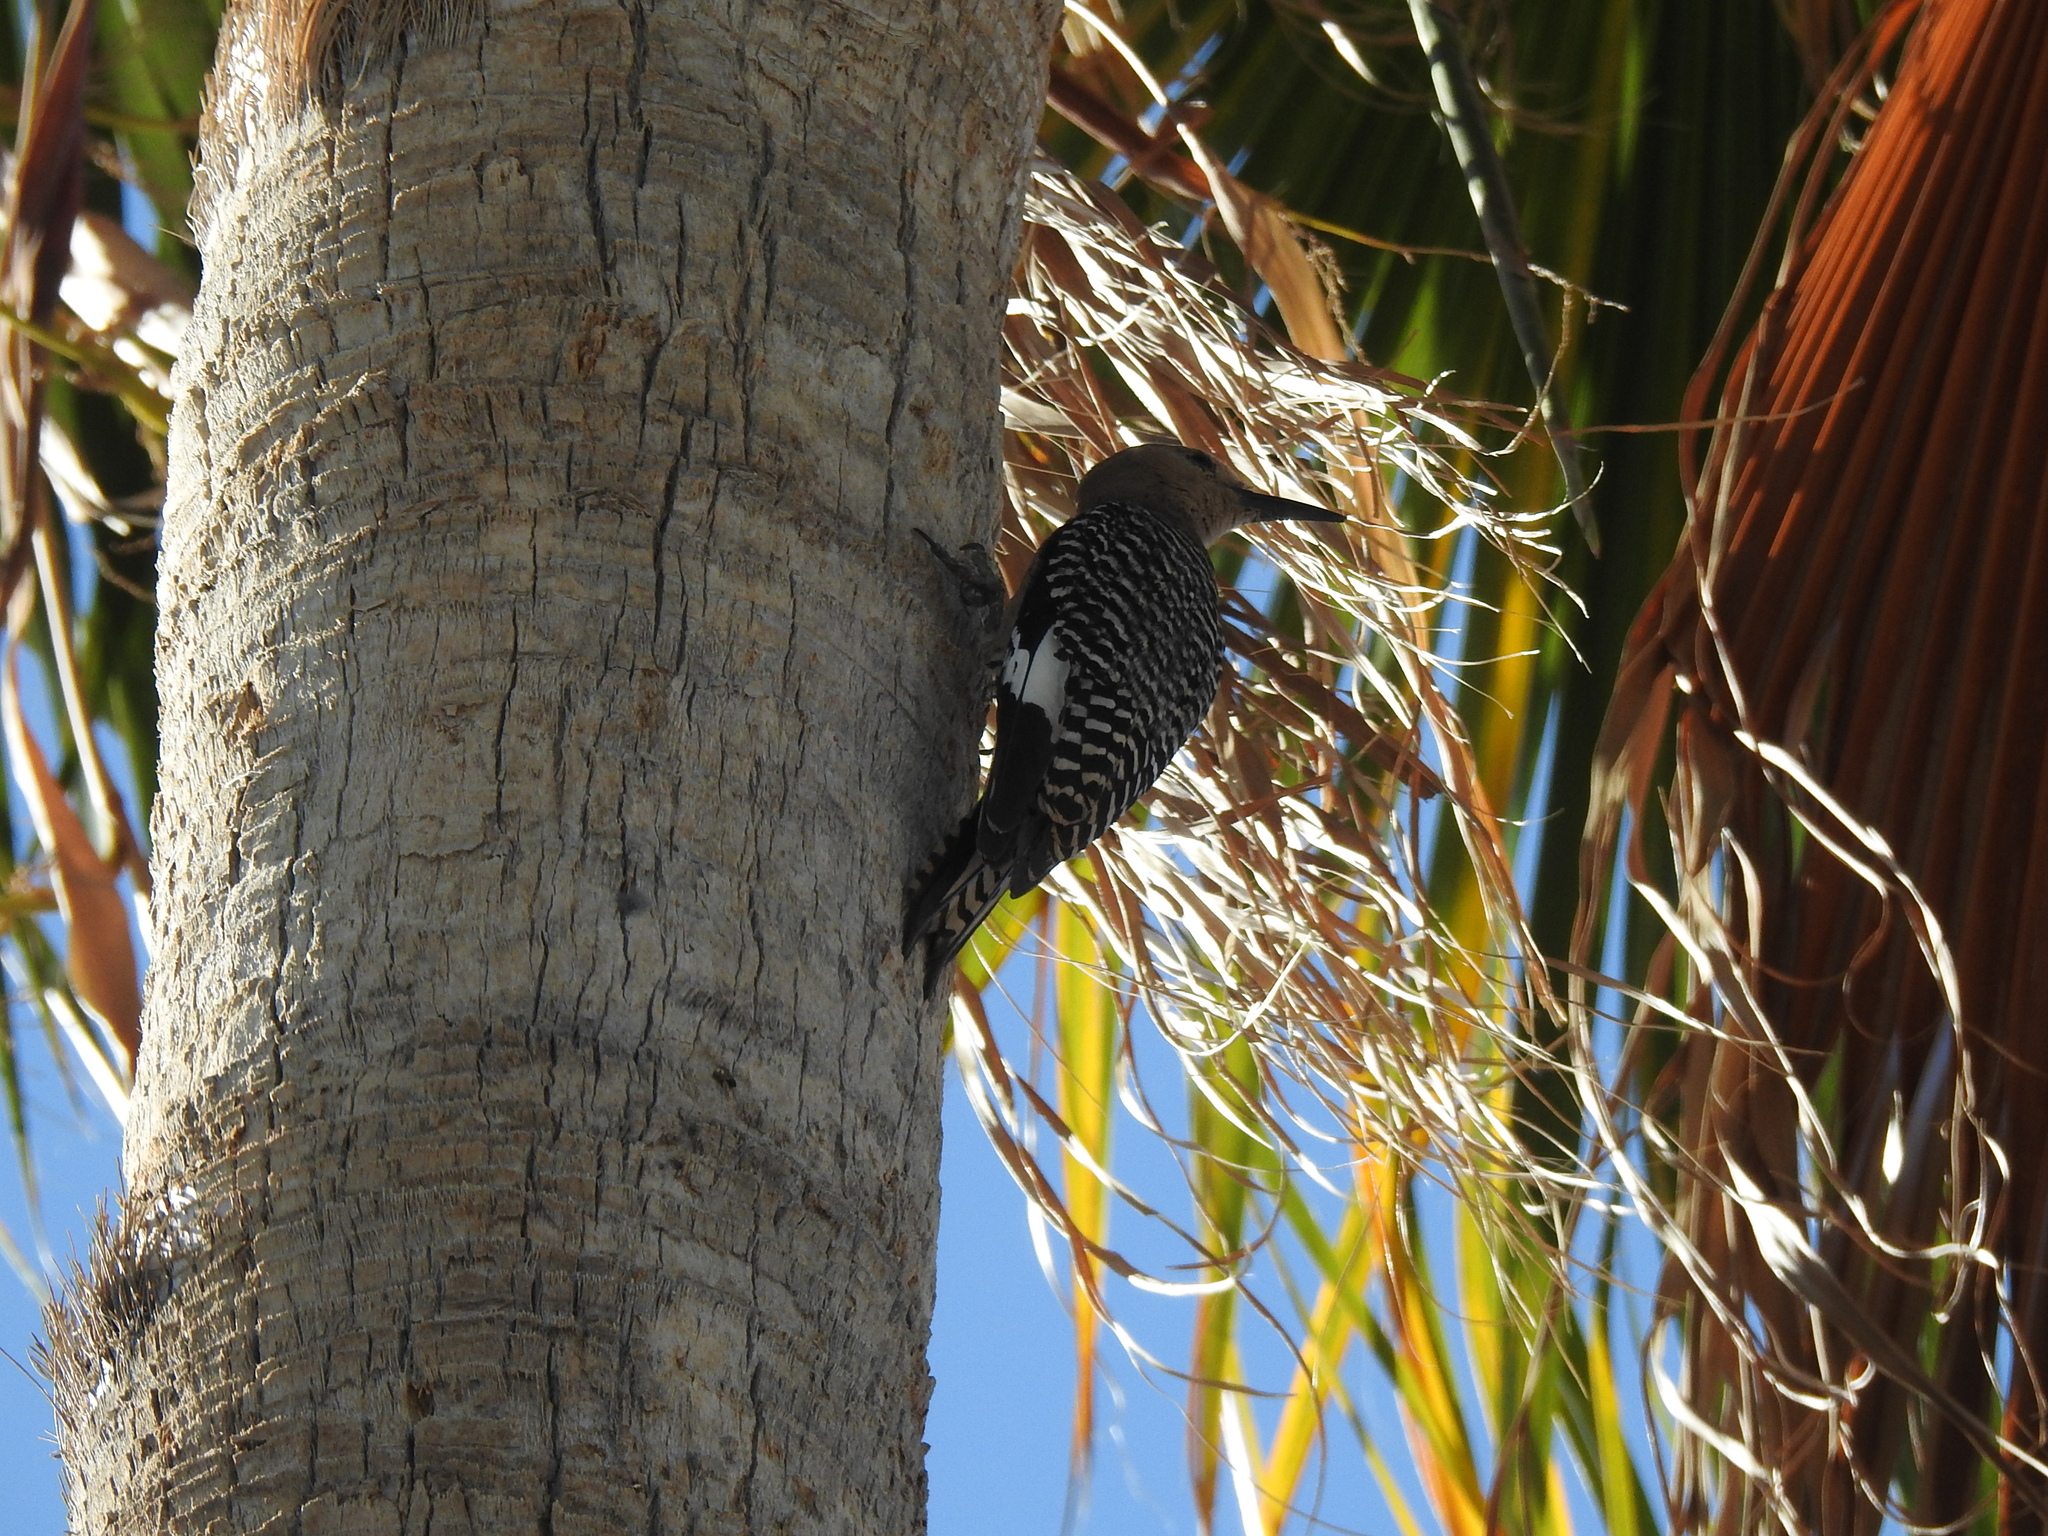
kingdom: Animalia
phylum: Chordata
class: Aves
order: Piciformes
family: Picidae
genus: Melanerpes
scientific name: Melanerpes uropygialis
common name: Gila woodpecker
